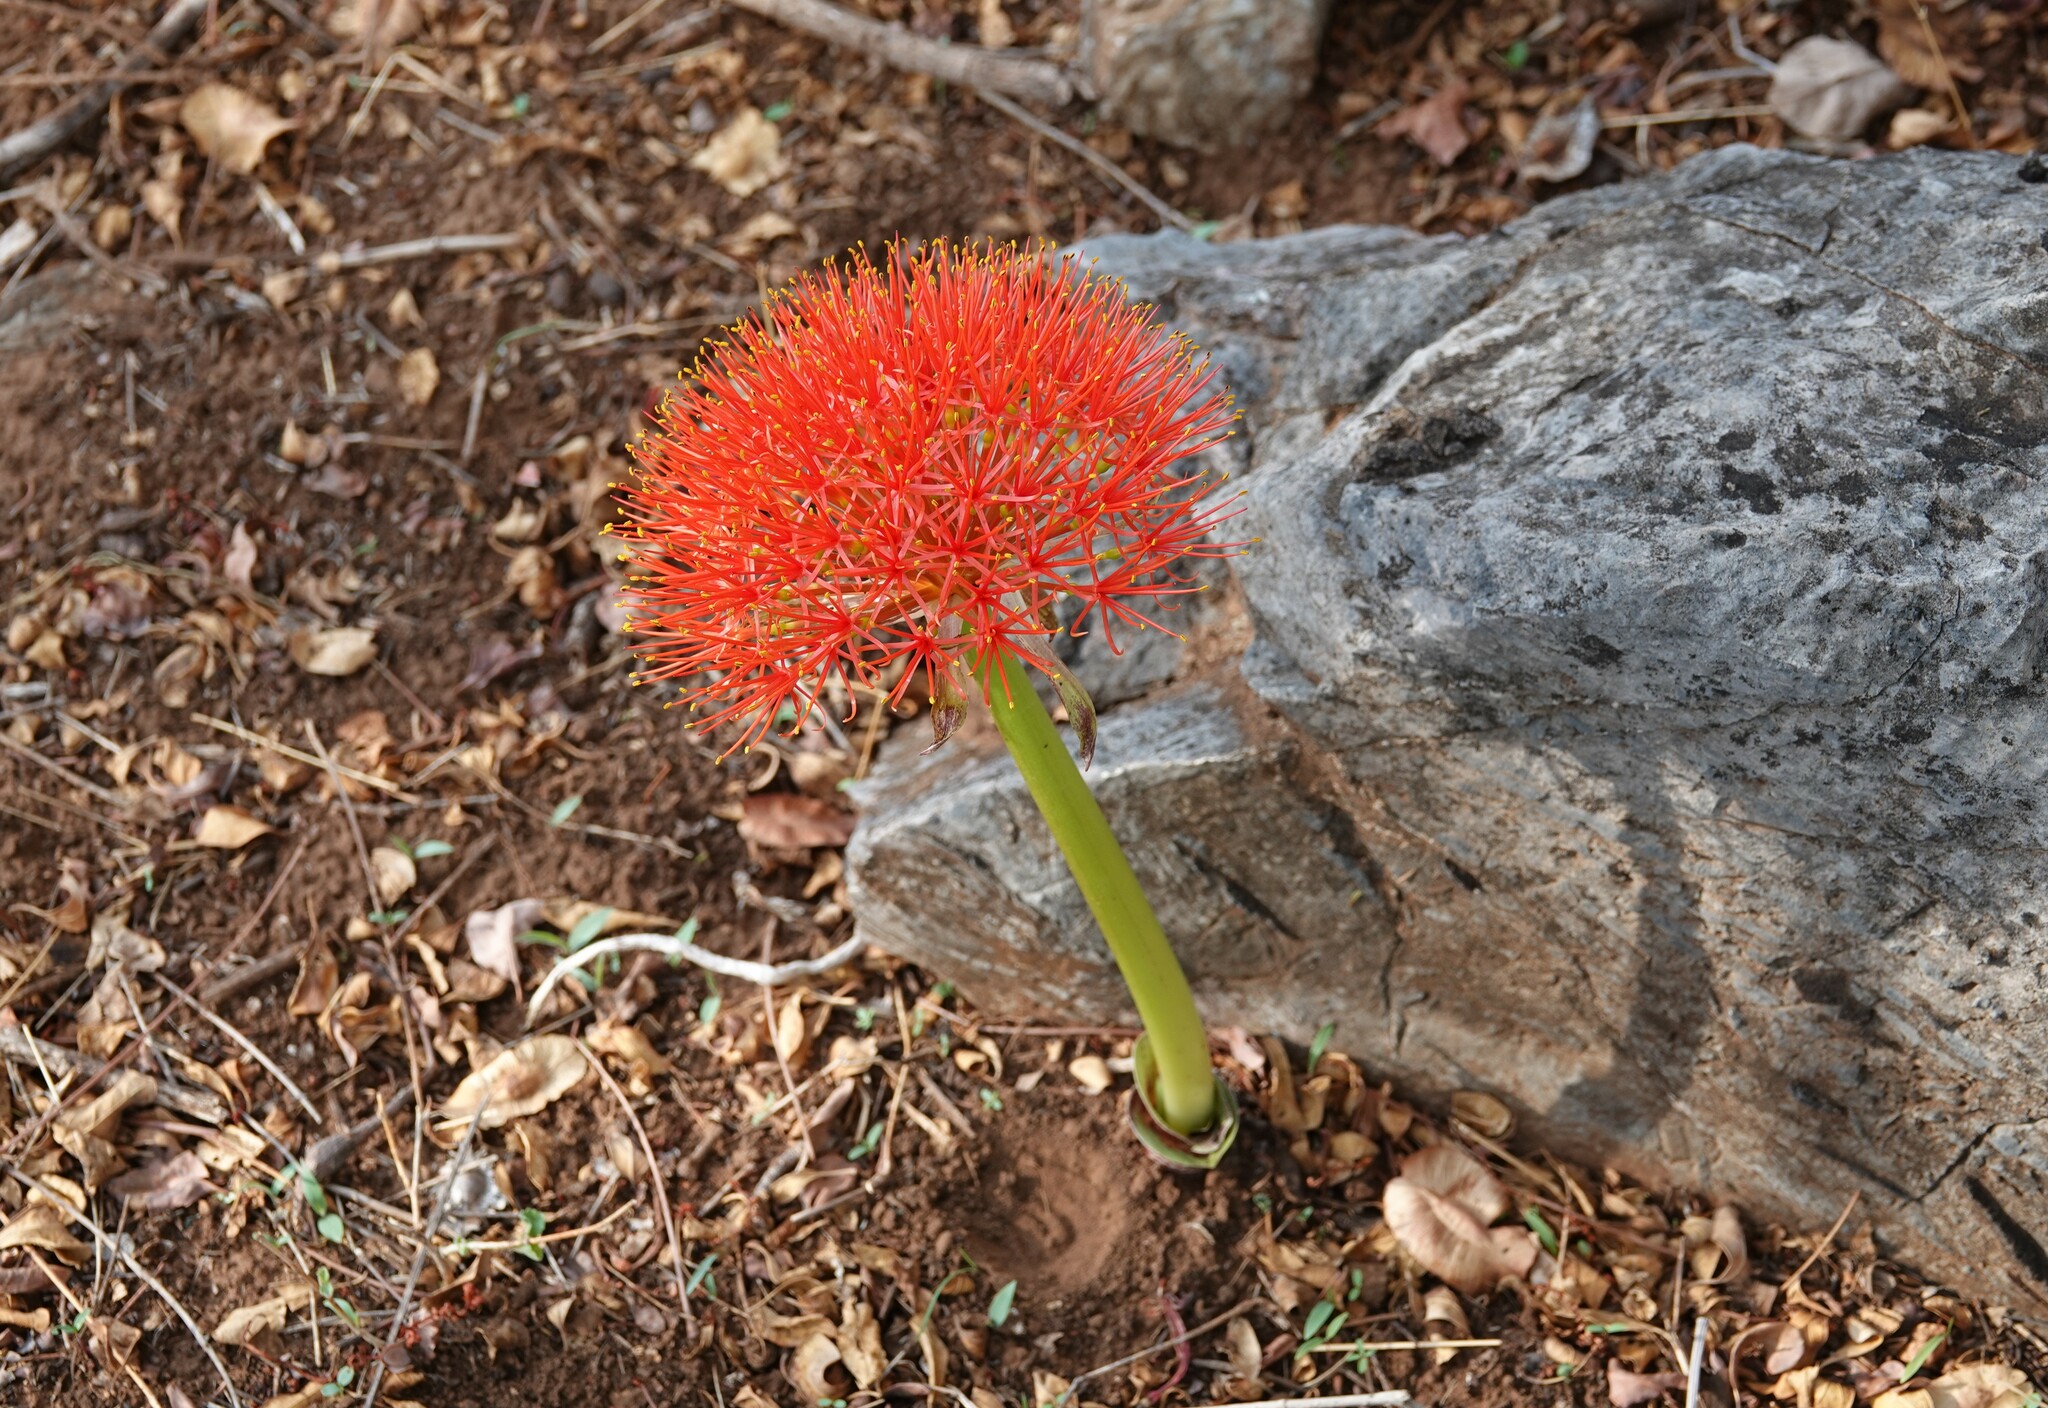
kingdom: Plantae
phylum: Tracheophyta
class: Liliopsida
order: Asparagales
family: Amaryllidaceae
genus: Scadoxus
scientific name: Scadoxus multiflorus
